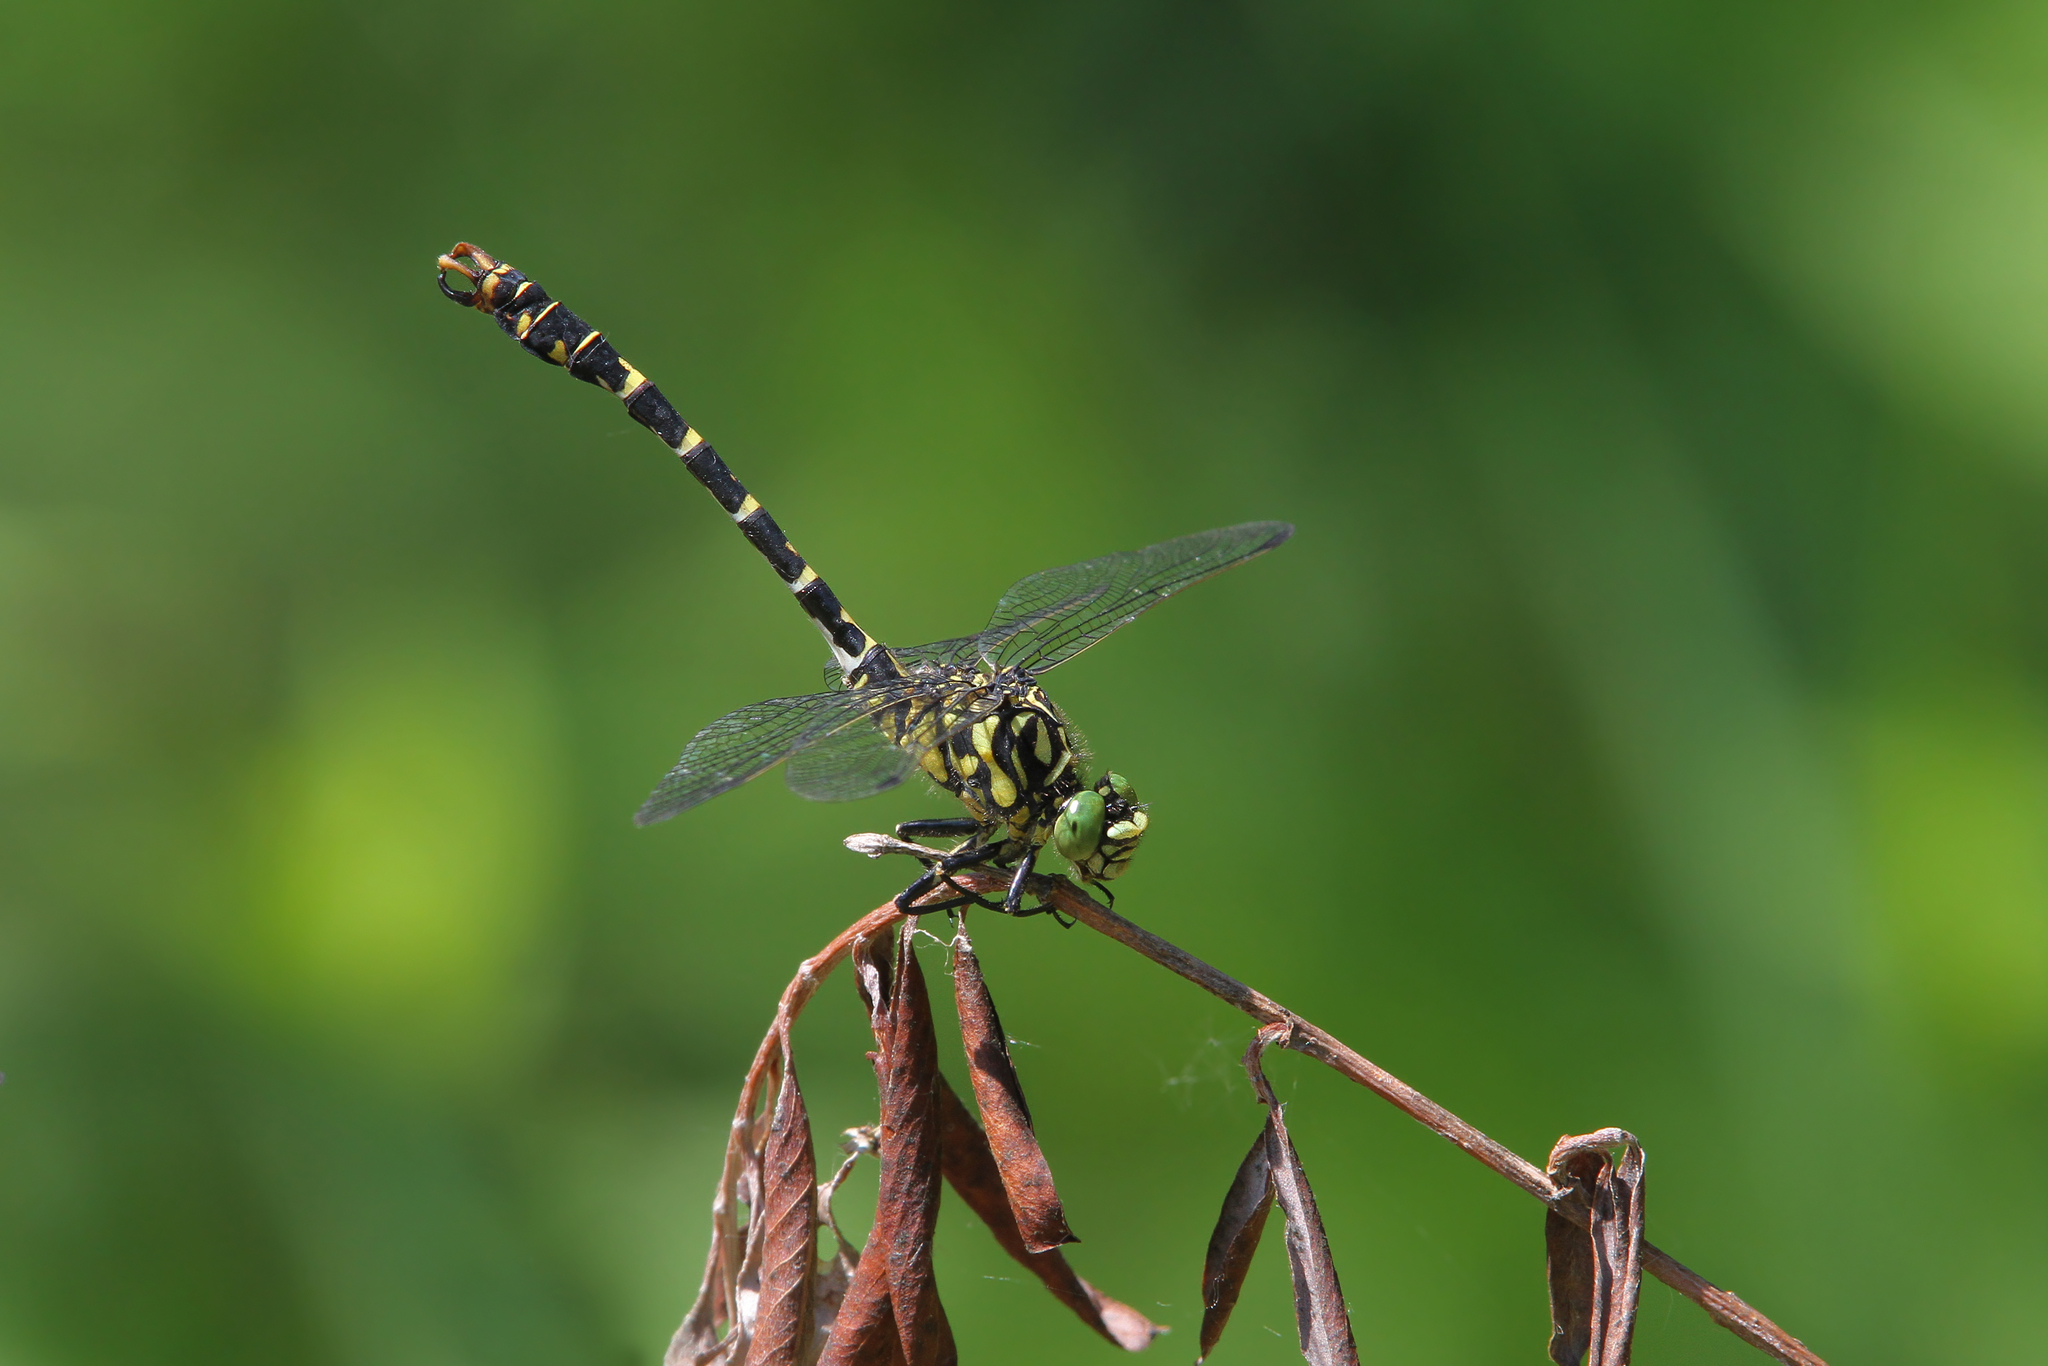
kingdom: Animalia
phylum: Arthropoda
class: Insecta
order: Odonata
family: Gomphidae
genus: Onychogomphus
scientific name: Onychogomphus forcipatus
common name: Small pincertail
